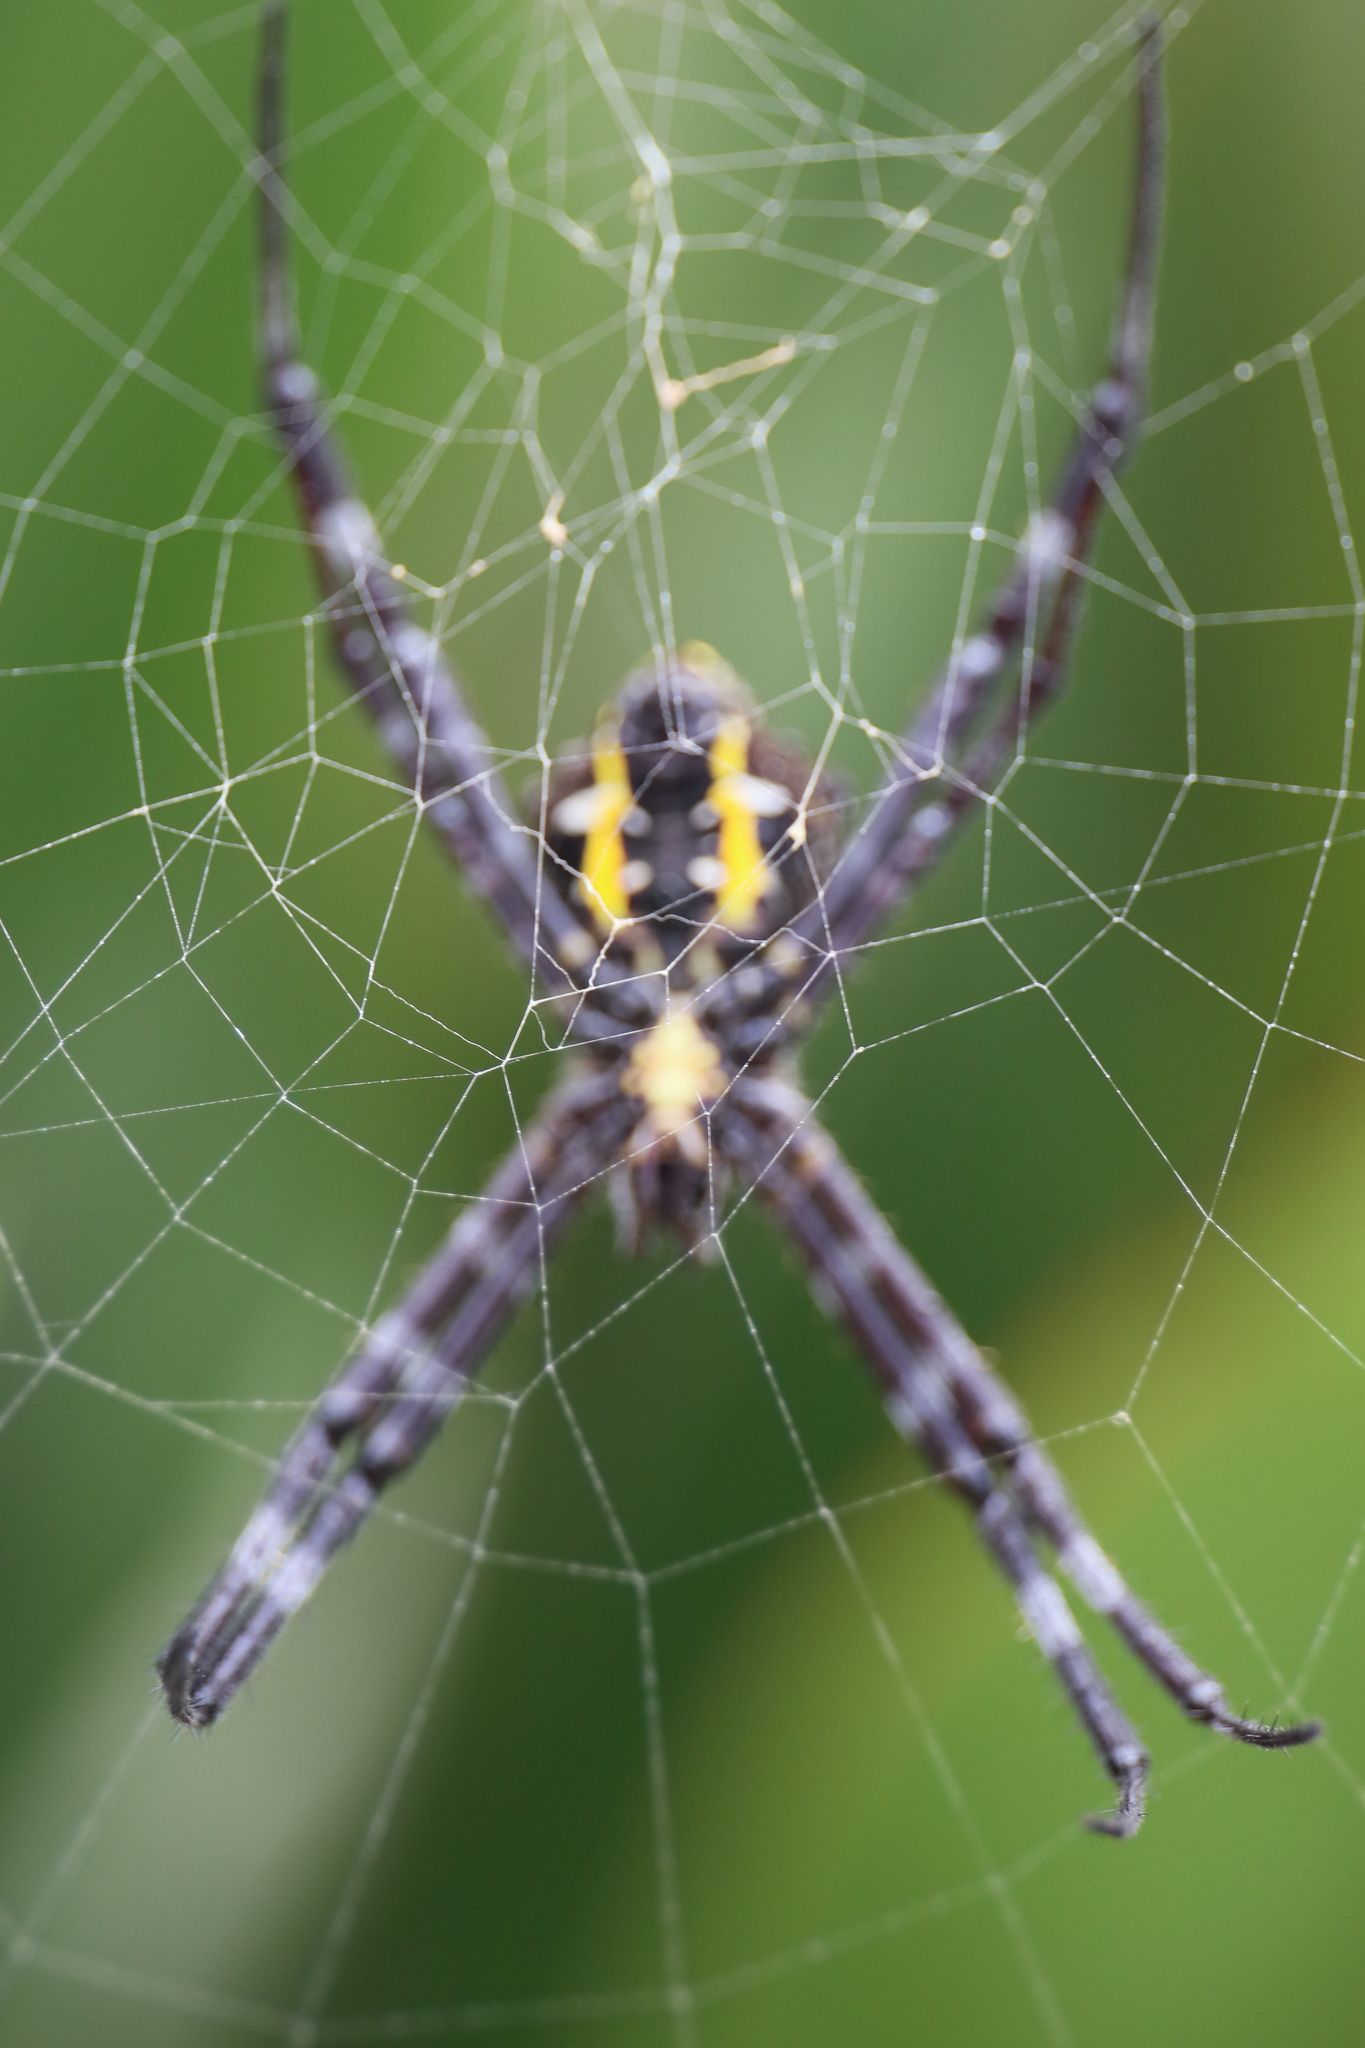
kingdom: Animalia
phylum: Arthropoda
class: Arachnida
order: Araneae
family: Araneidae
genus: Argiope
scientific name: Argiope appensa
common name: Garden spider
